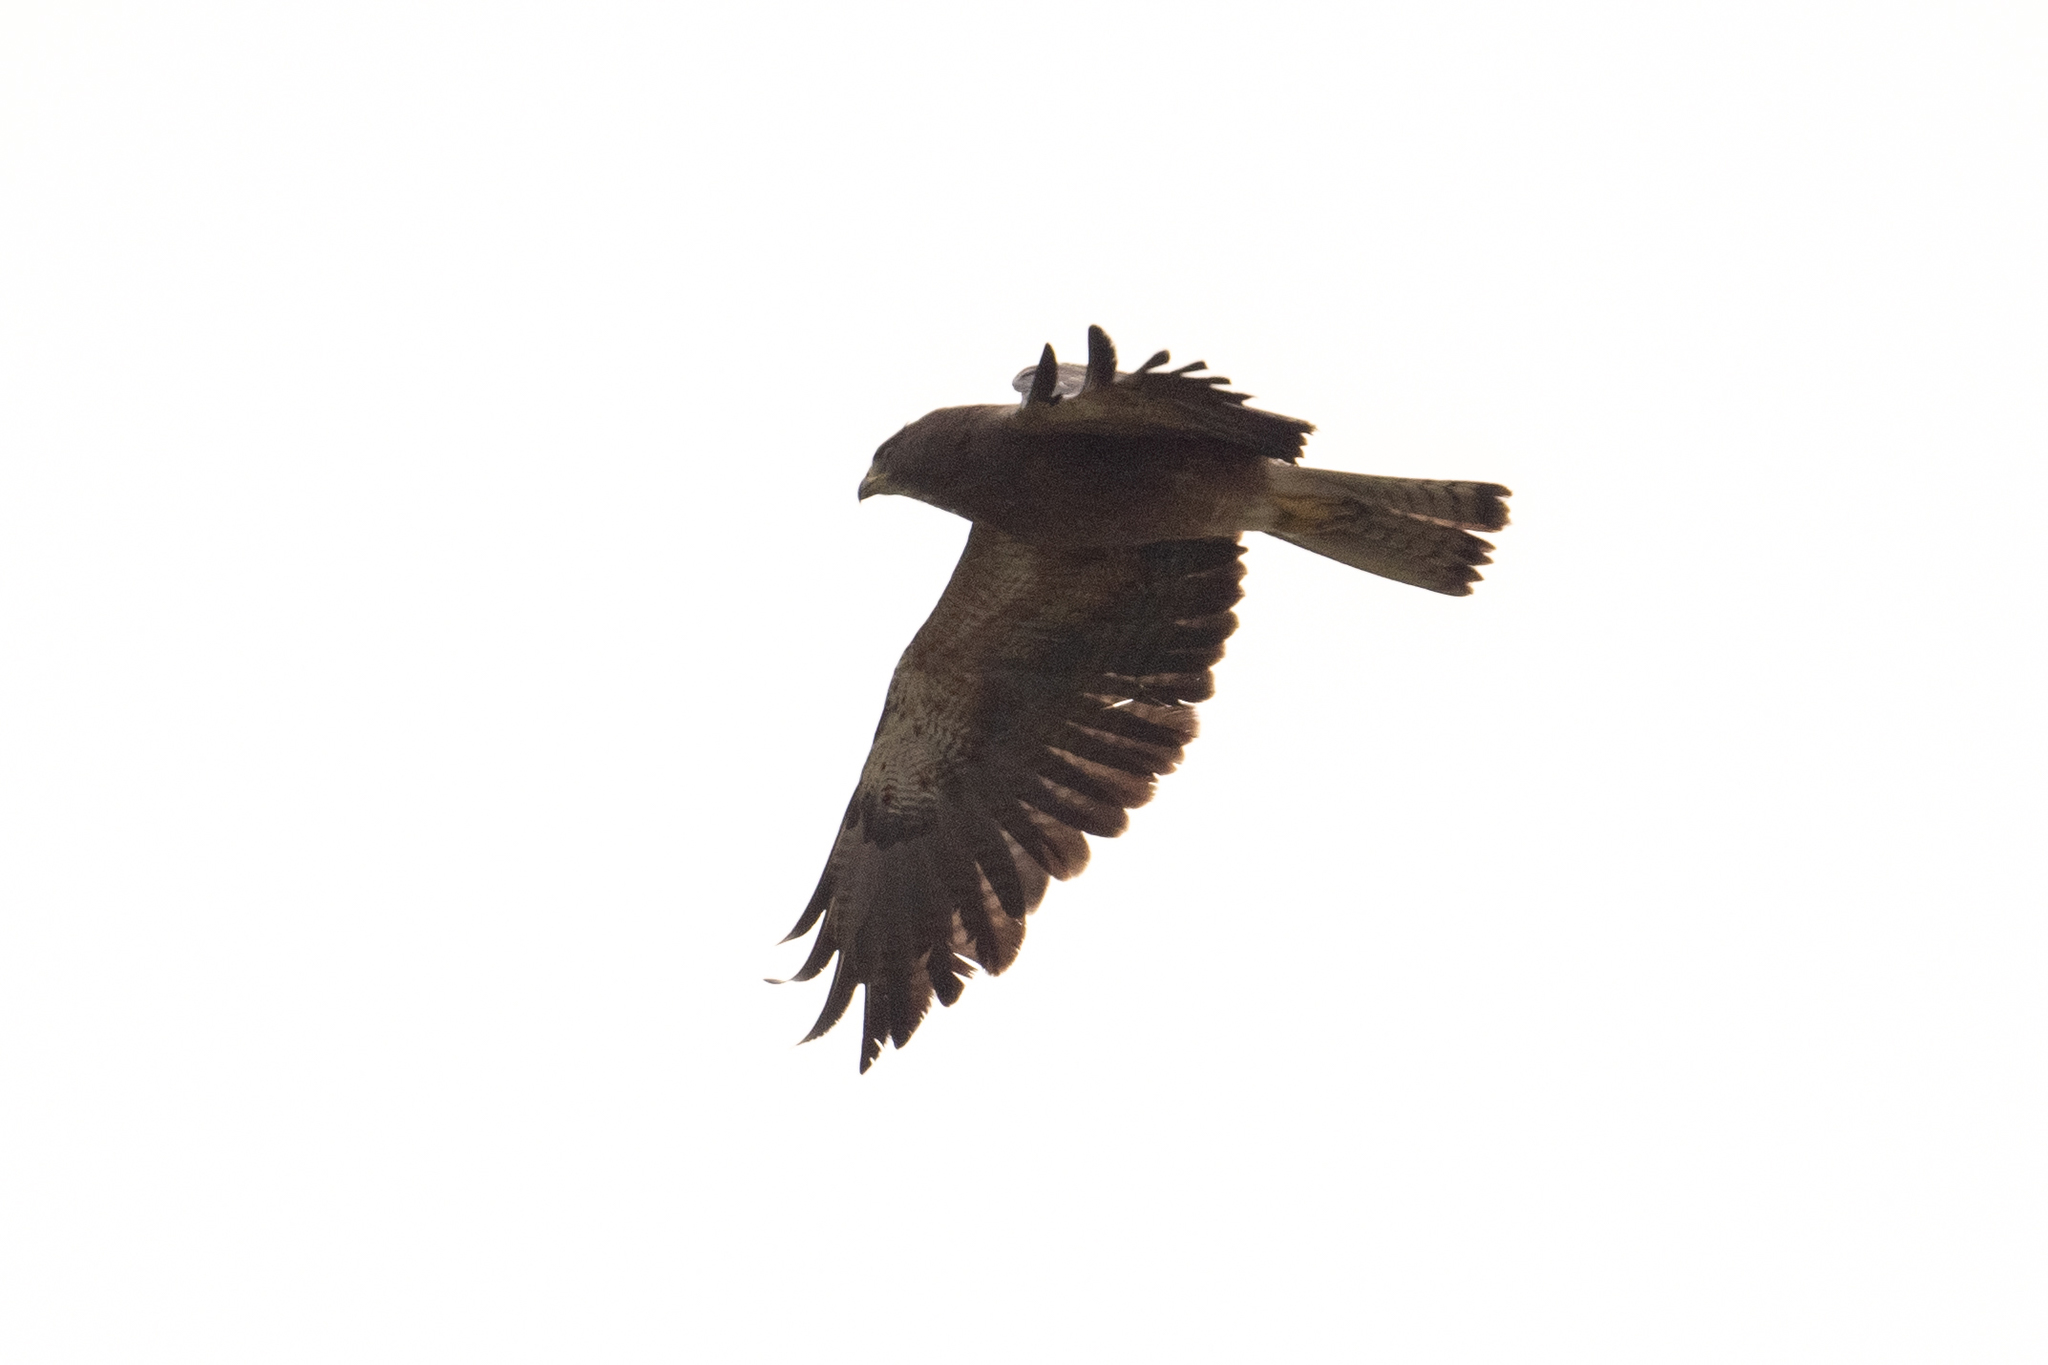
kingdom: Animalia
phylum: Chordata
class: Aves
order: Accipitriformes
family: Accipitridae
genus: Buteo
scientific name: Buteo swainsoni
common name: Swainson's hawk
